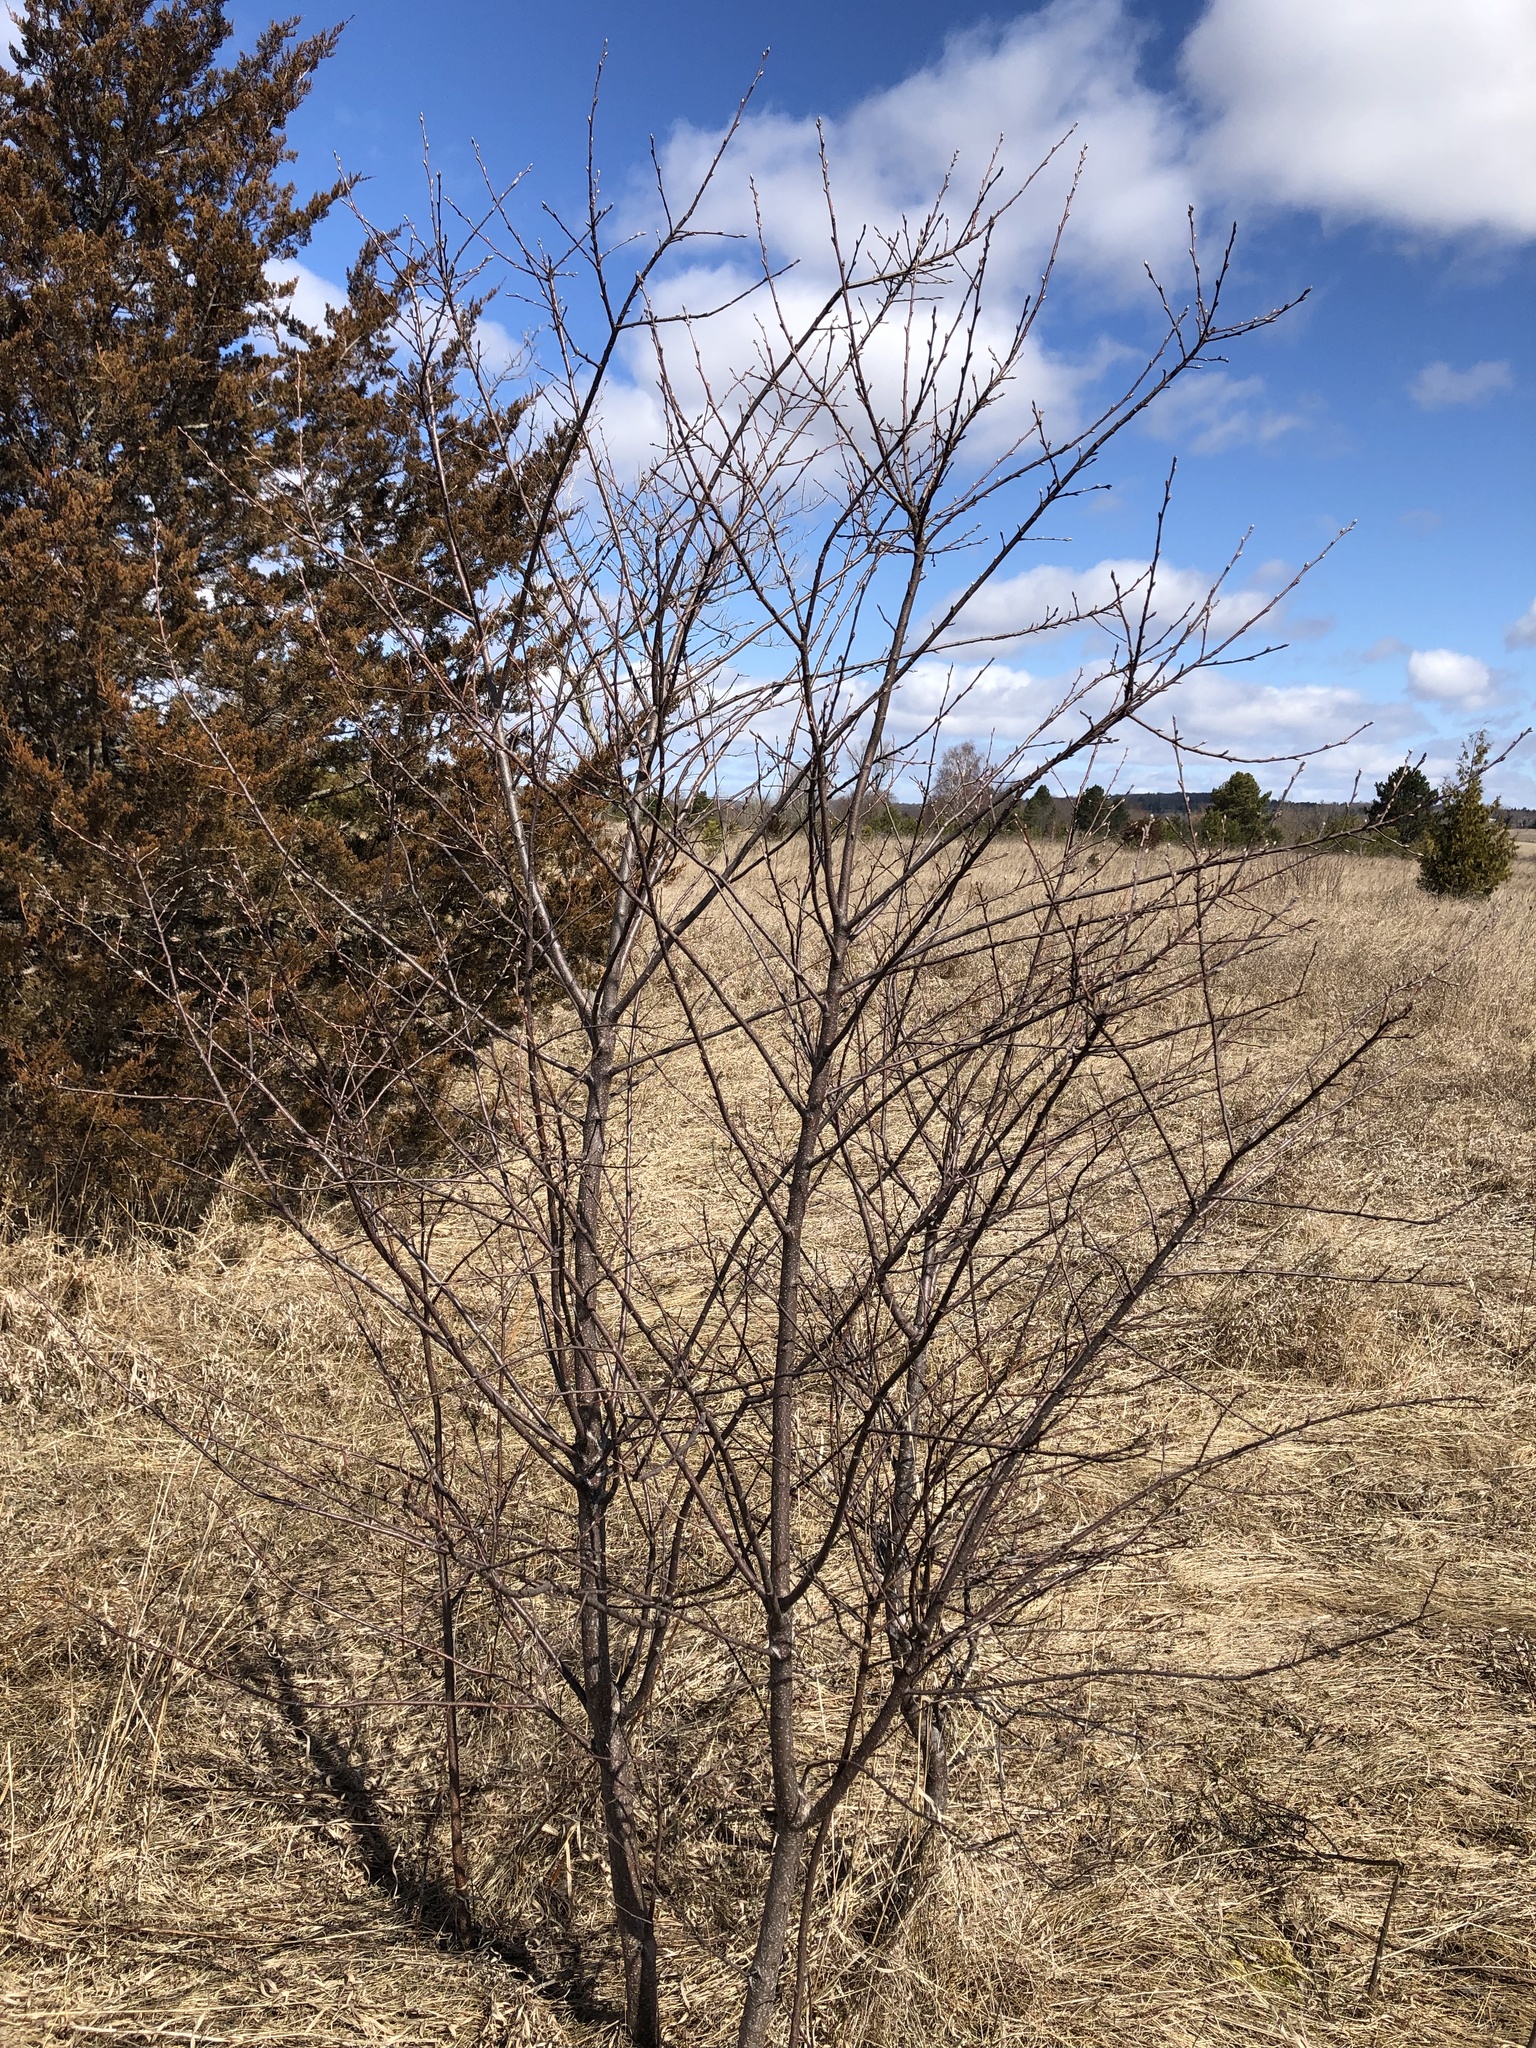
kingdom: Plantae
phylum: Tracheophyta
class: Magnoliopsida
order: Rosales
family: Rhamnaceae
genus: Rhamnus
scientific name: Rhamnus cathartica
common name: Common buckthorn
